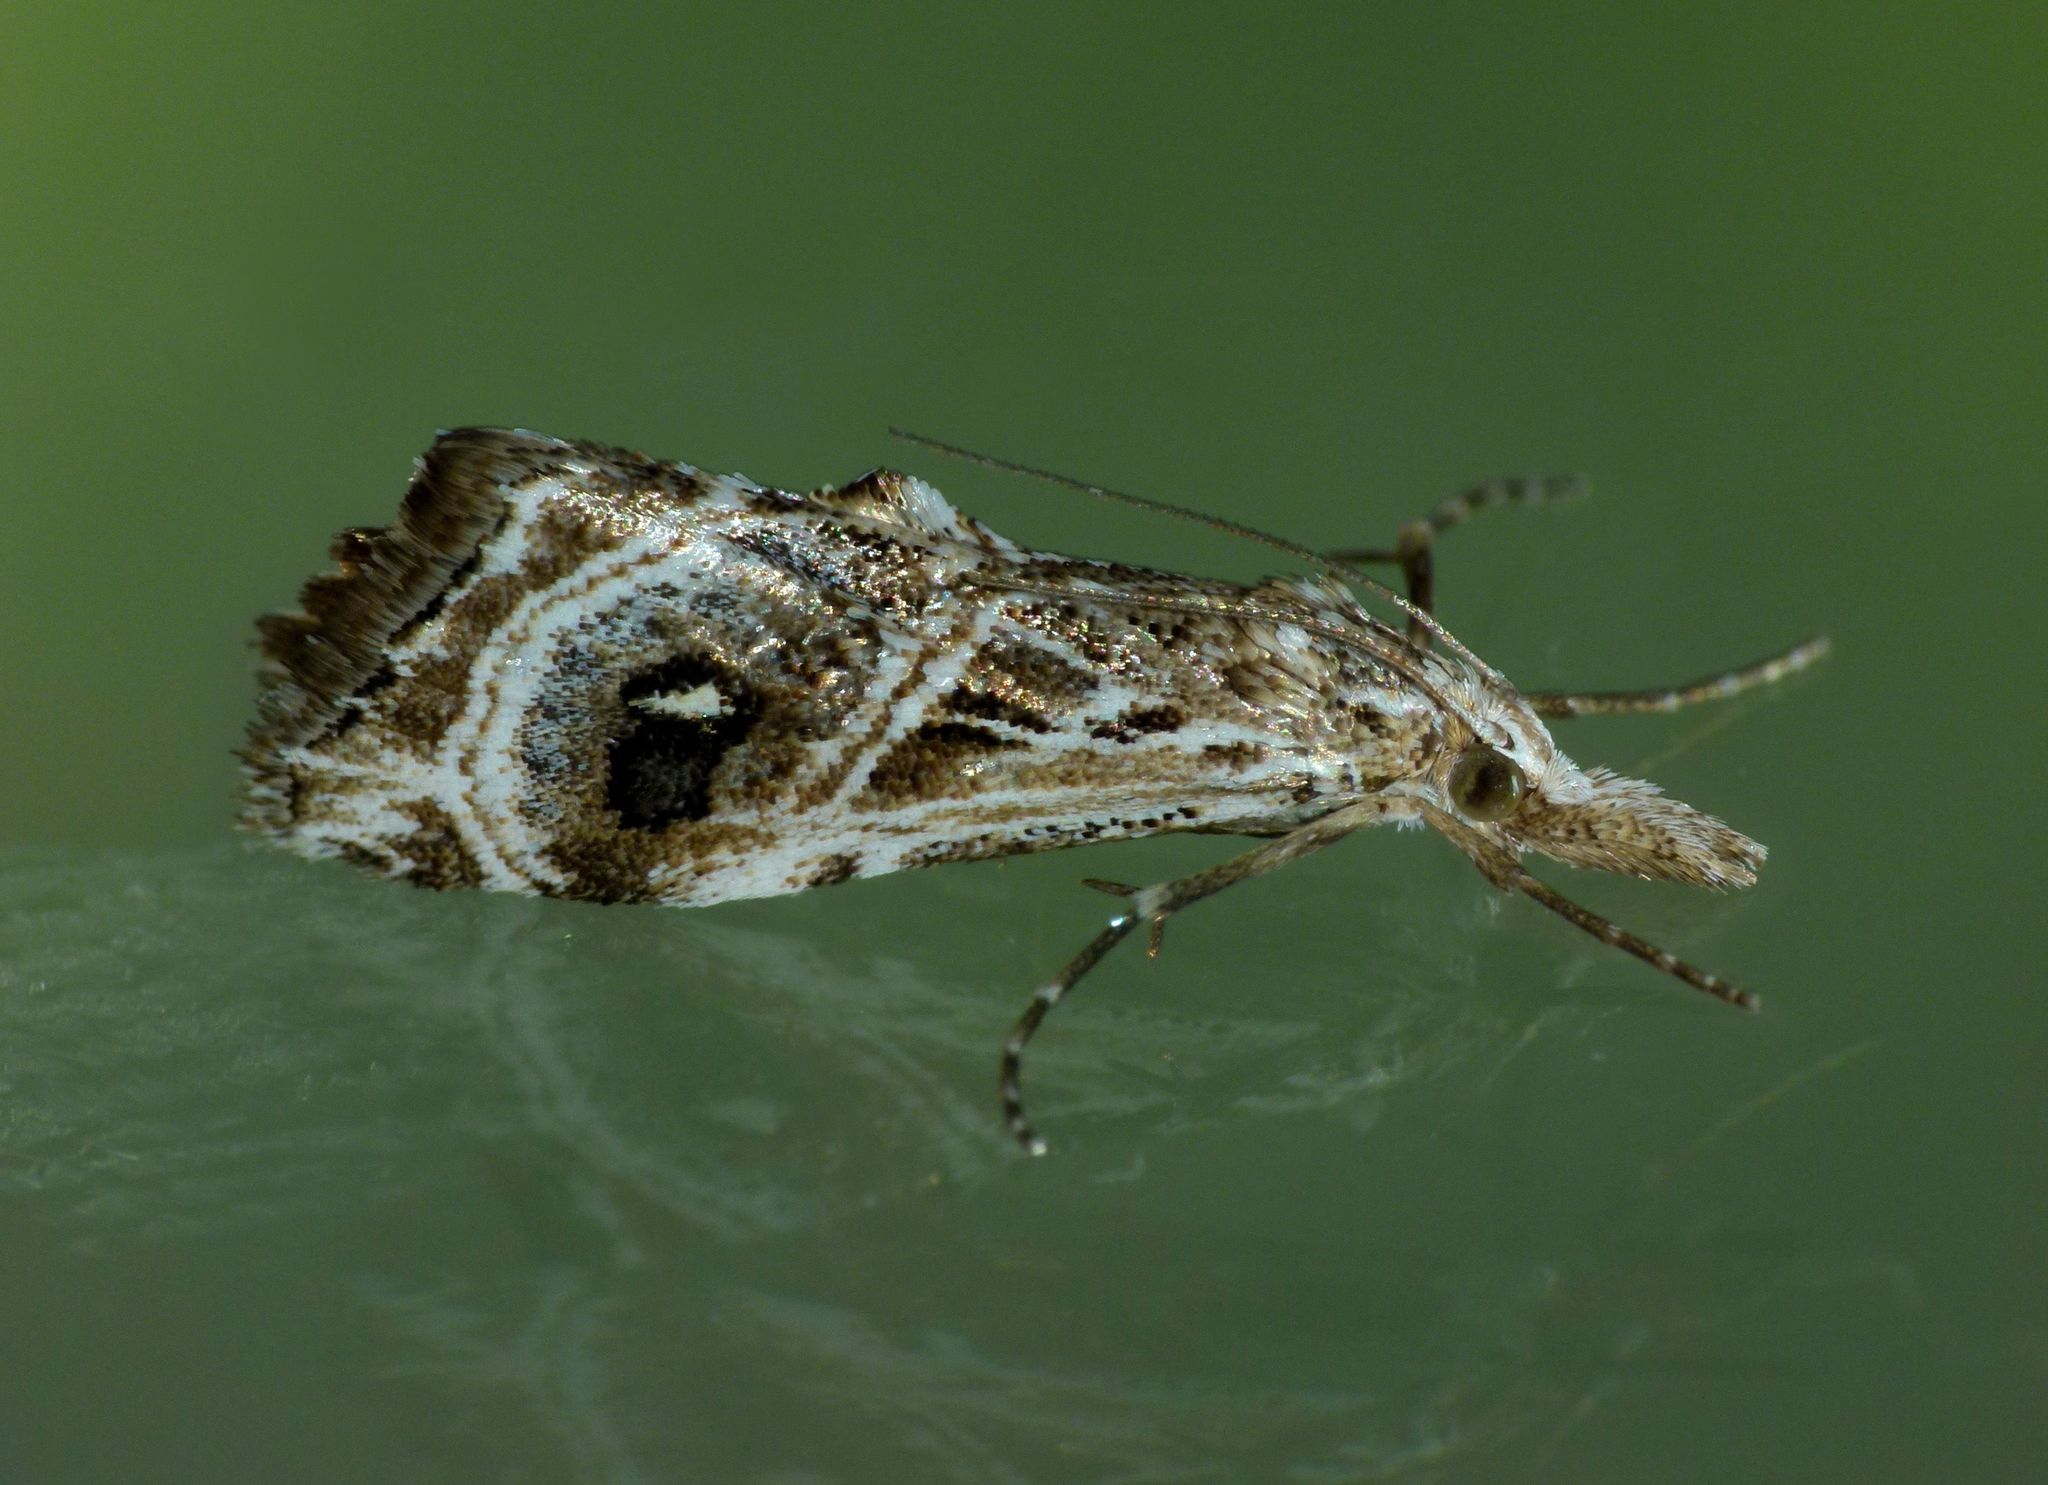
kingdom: Animalia
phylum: Arthropoda
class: Insecta
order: Lepidoptera
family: Crambidae
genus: Gadira
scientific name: Gadira acerella
